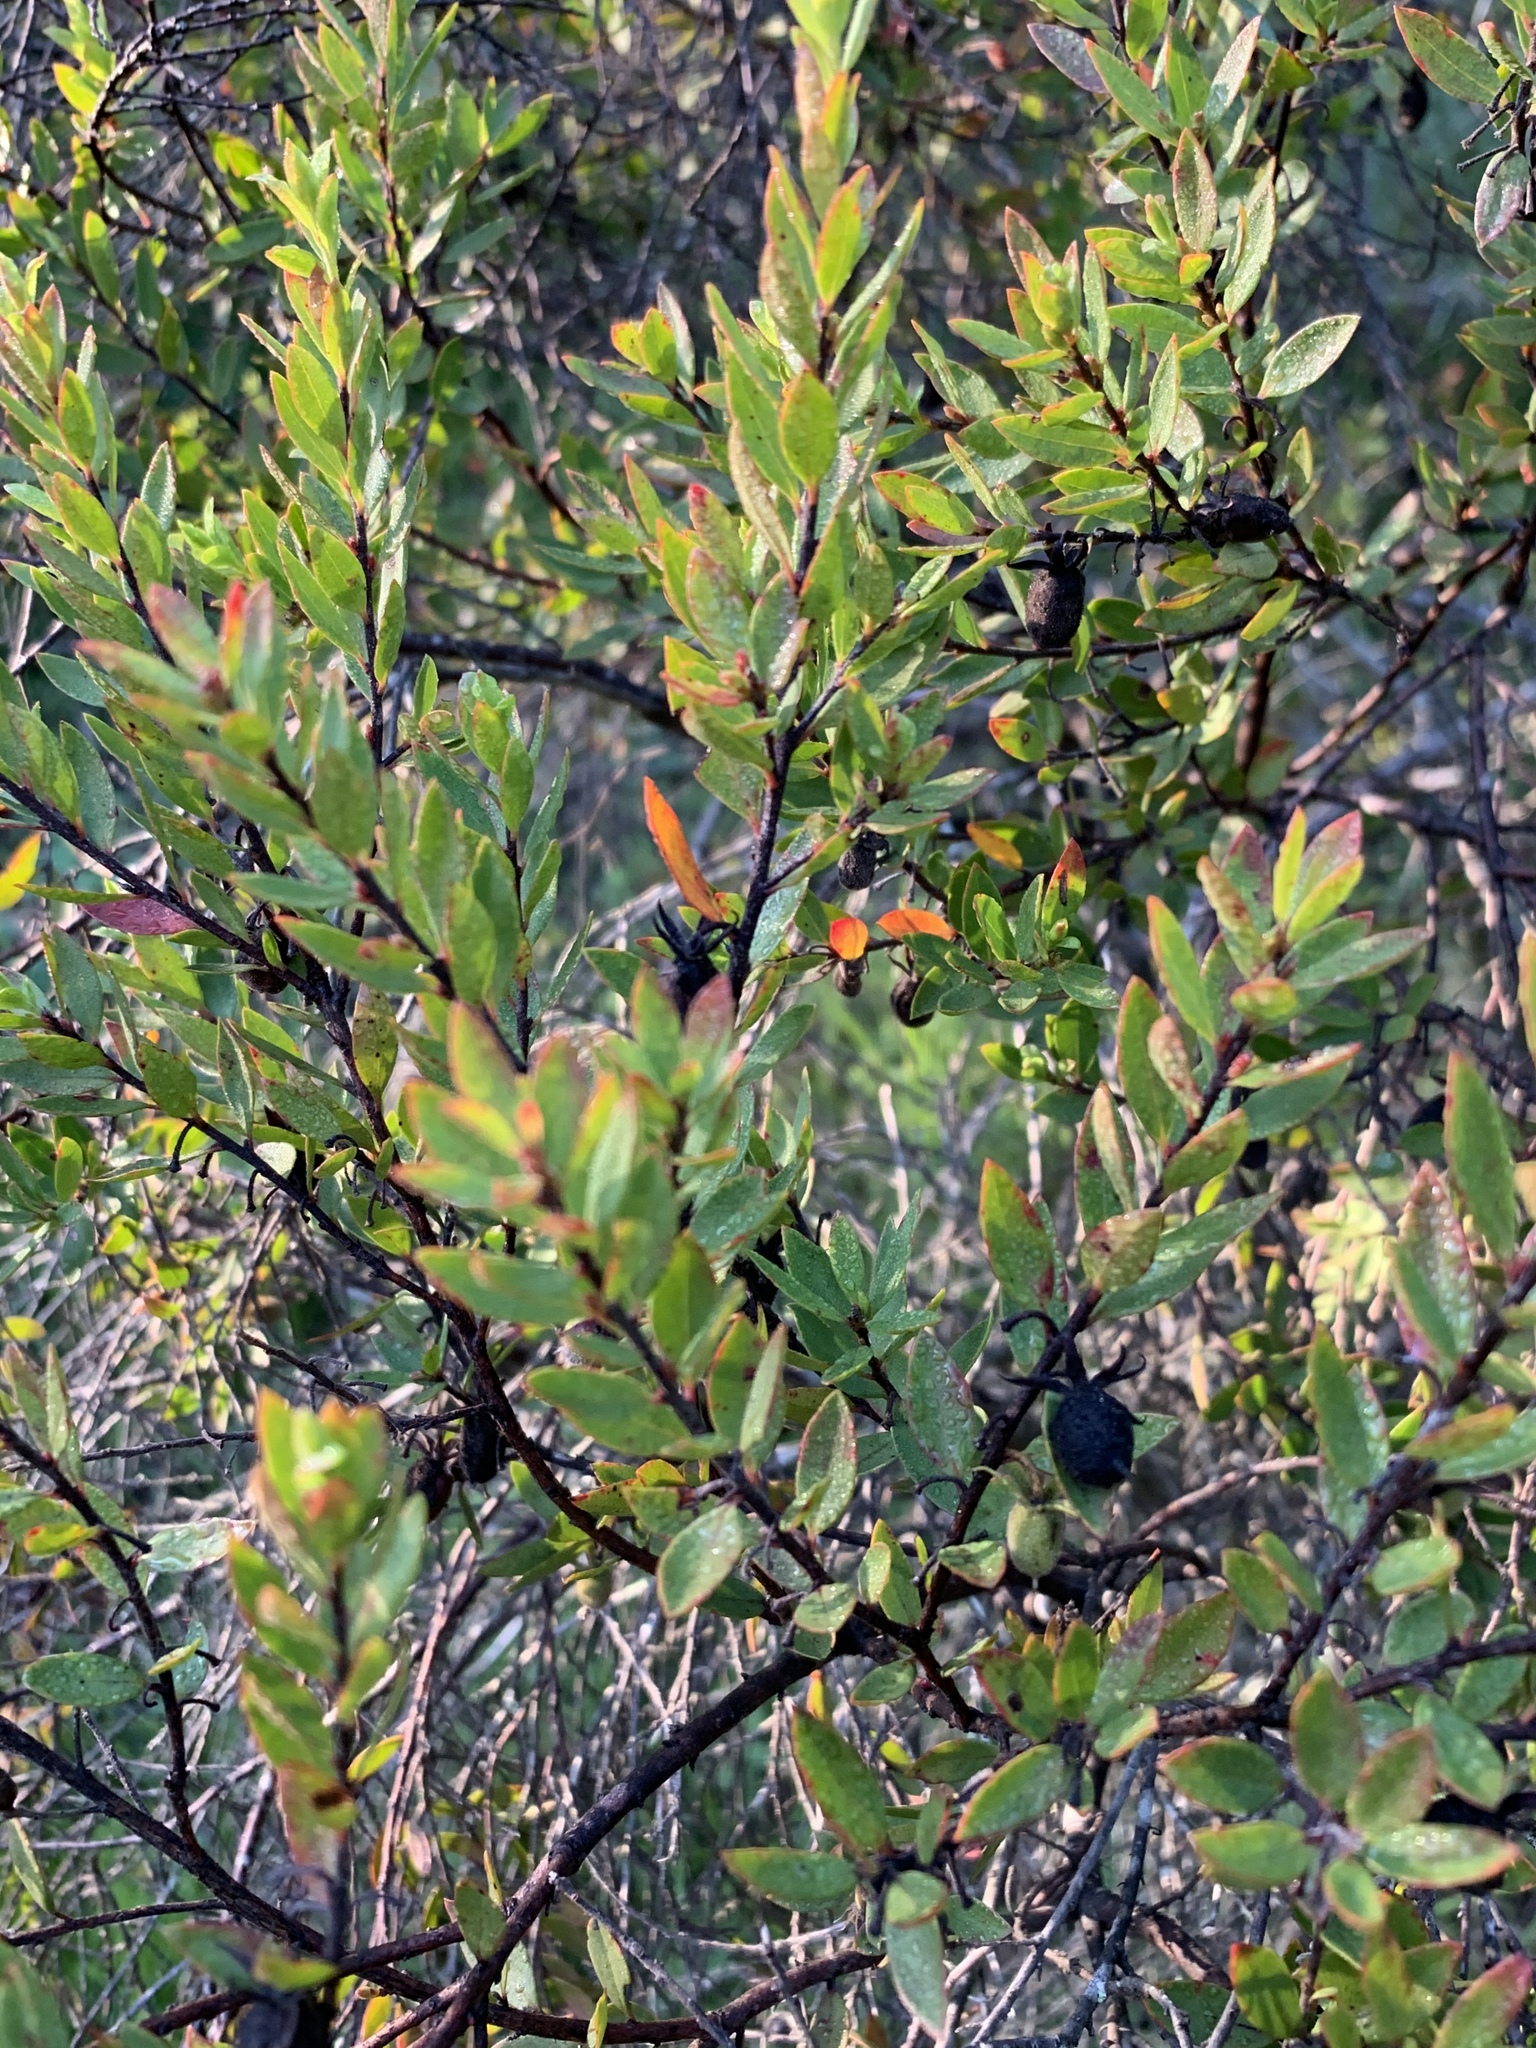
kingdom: Plantae
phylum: Tracheophyta
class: Magnoliopsida
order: Ericales
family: Ebenaceae
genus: Diospyros
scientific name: Diospyros glabra
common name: Fynbos star apple
